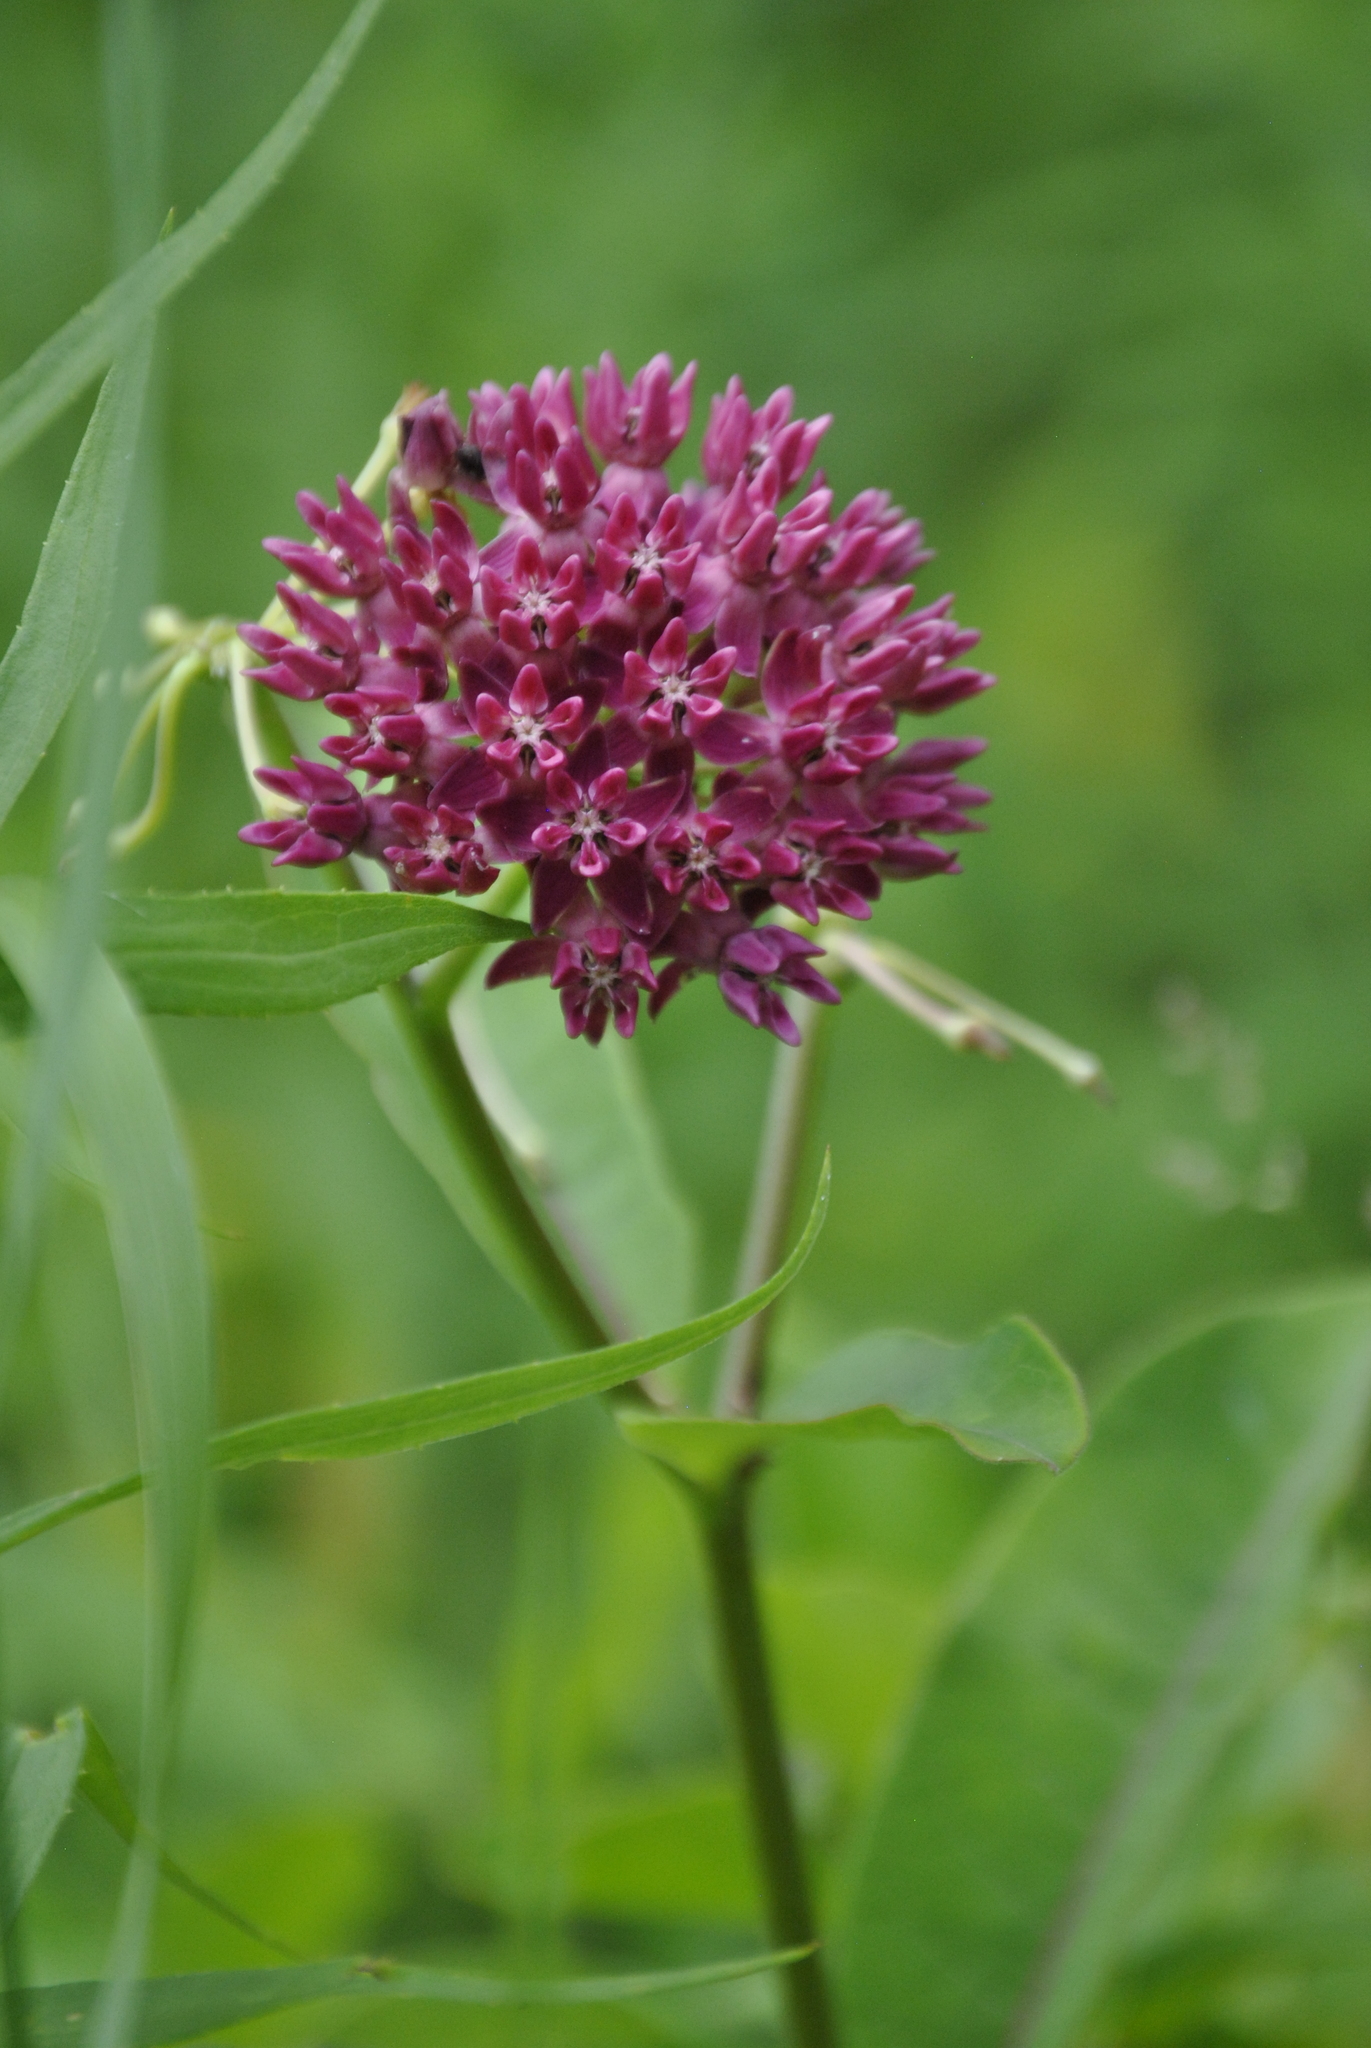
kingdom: Plantae
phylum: Tracheophyta
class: Magnoliopsida
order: Gentianales
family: Apocynaceae
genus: Asclepias
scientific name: Asclepias purpurascens
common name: Purple milkweed
